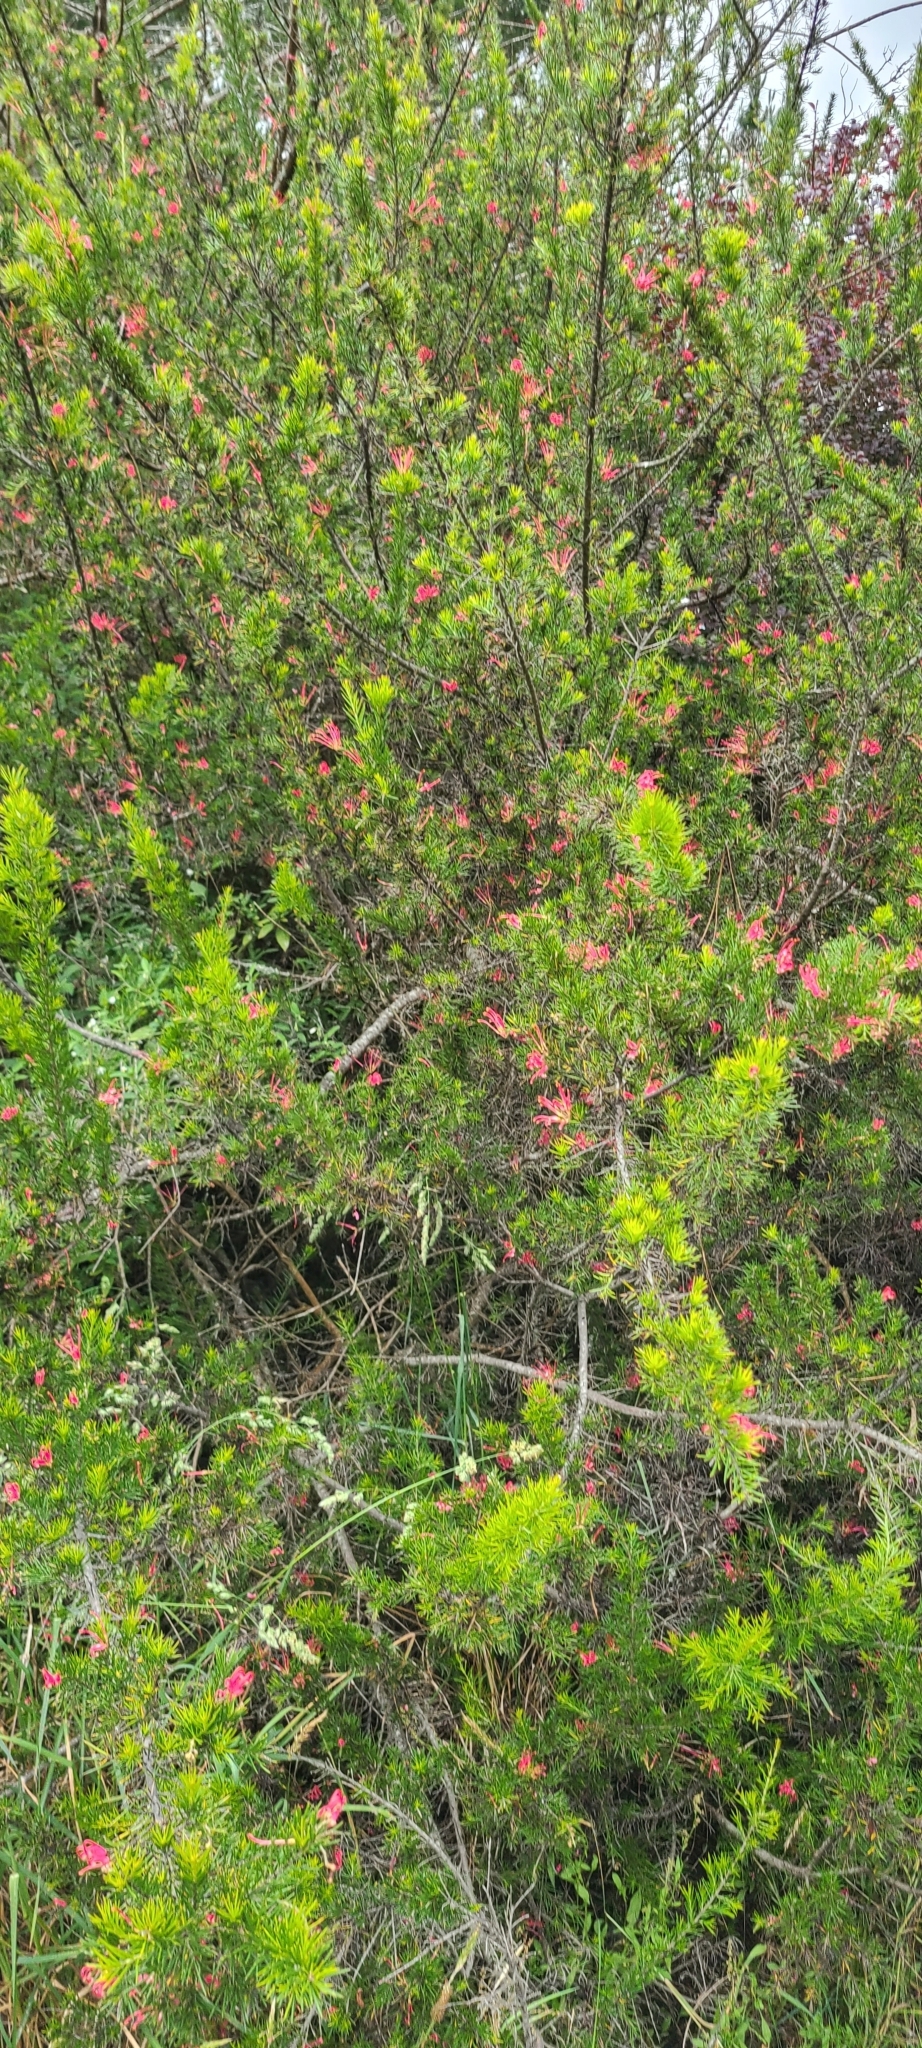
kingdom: Plantae
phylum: Tracheophyta
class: Magnoliopsida
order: Proteales
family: Proteaceae
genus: Grevillea
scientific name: Grevillea rosmarinifolia
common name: Rosemary grevillea
